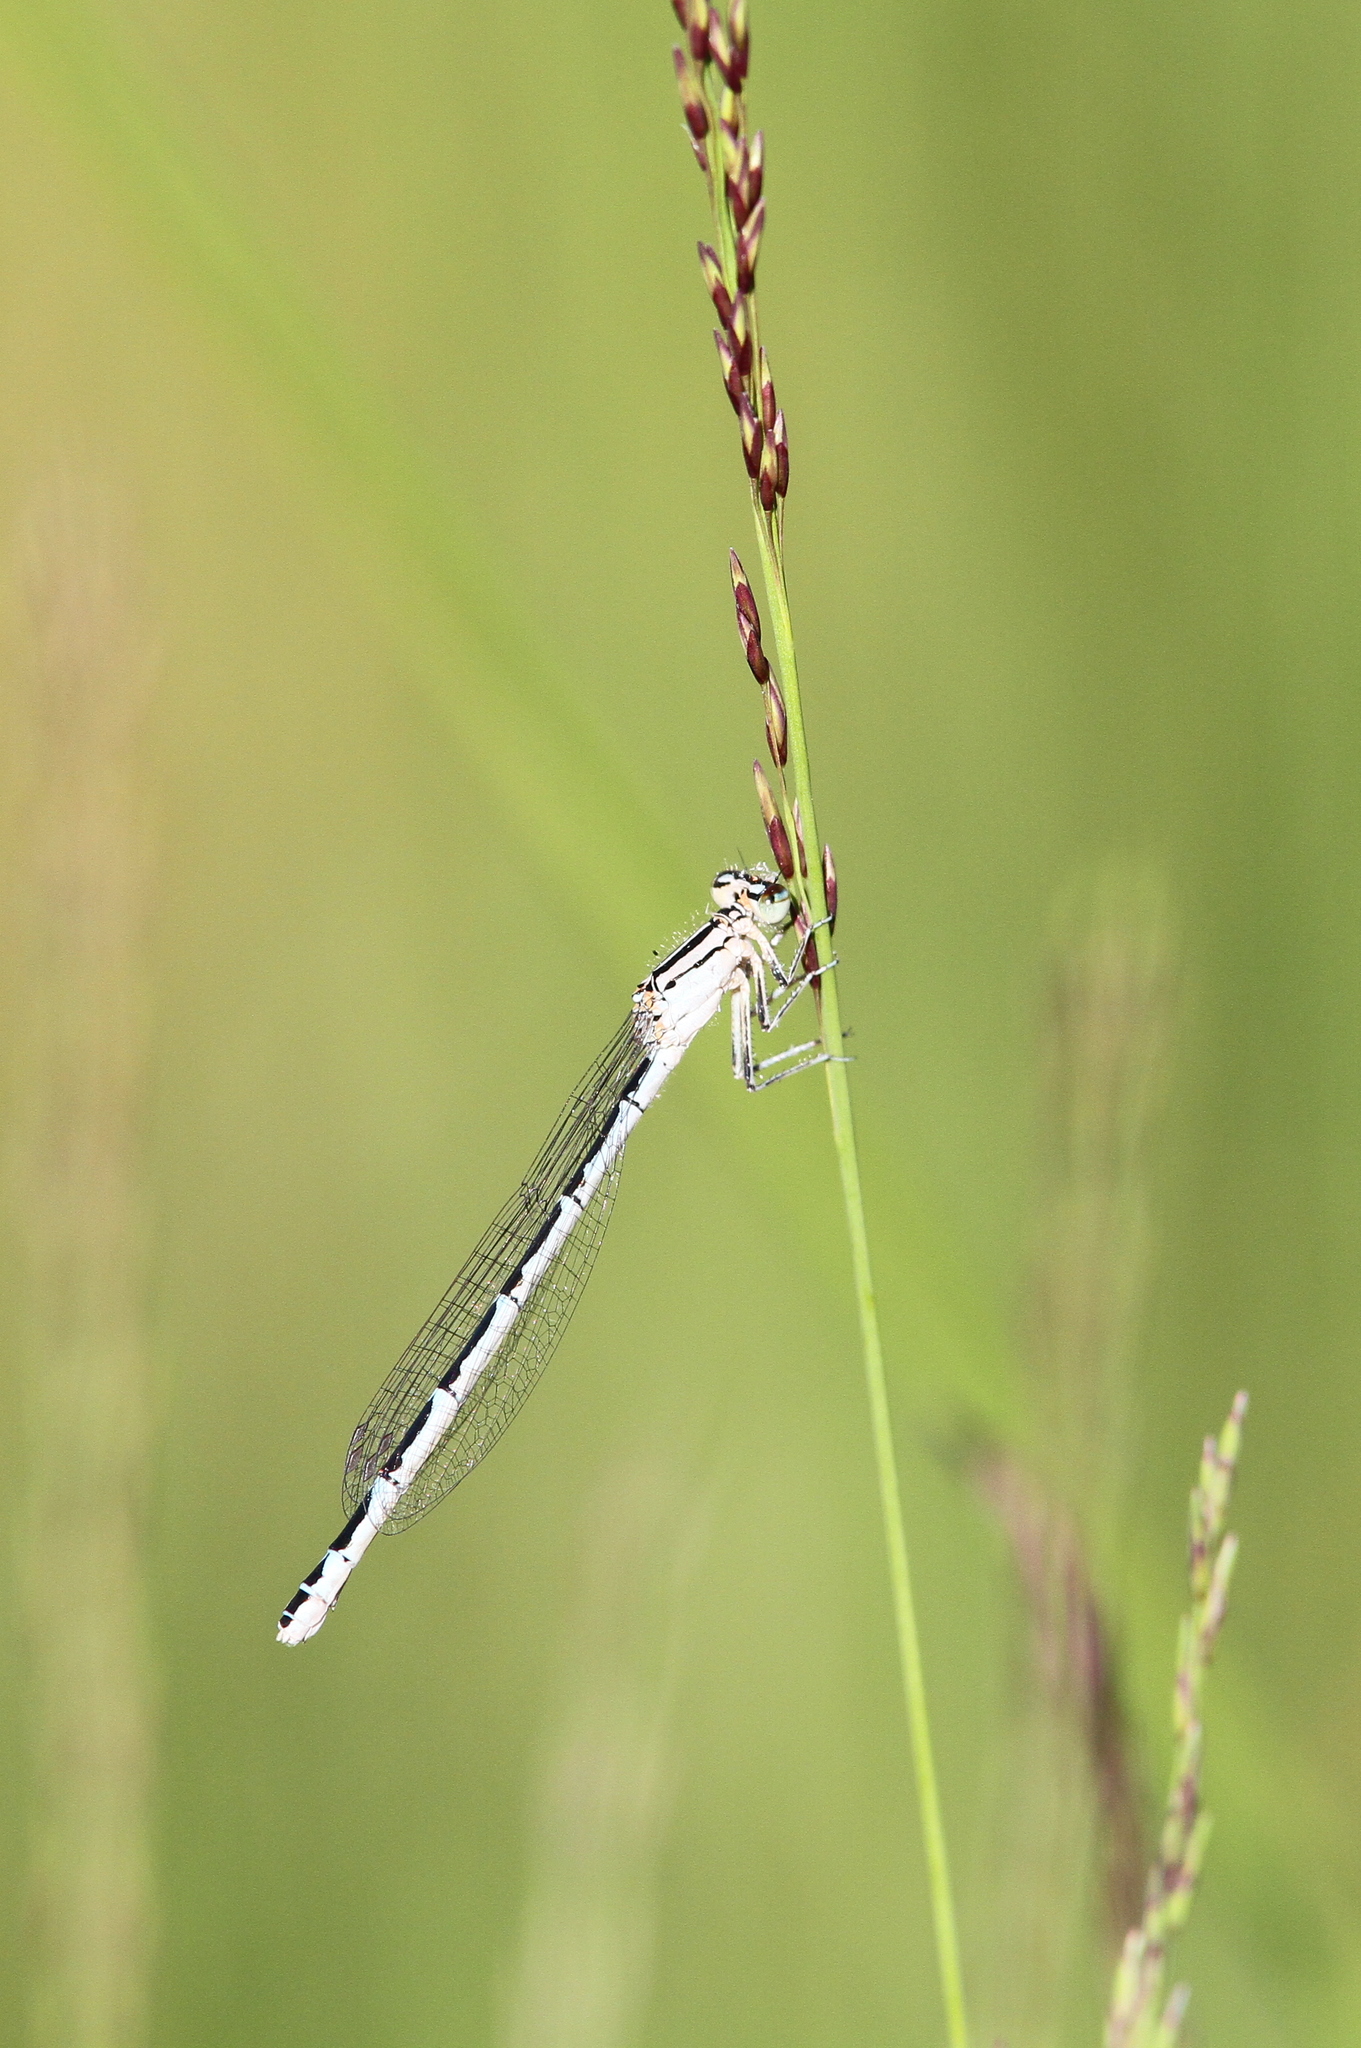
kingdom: Animalia
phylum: Arthropoda
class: Insecta
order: Odonata
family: Coenagrionidae
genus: Enallagma
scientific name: Enallagma cyathigerum
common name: Common blue damselfly
